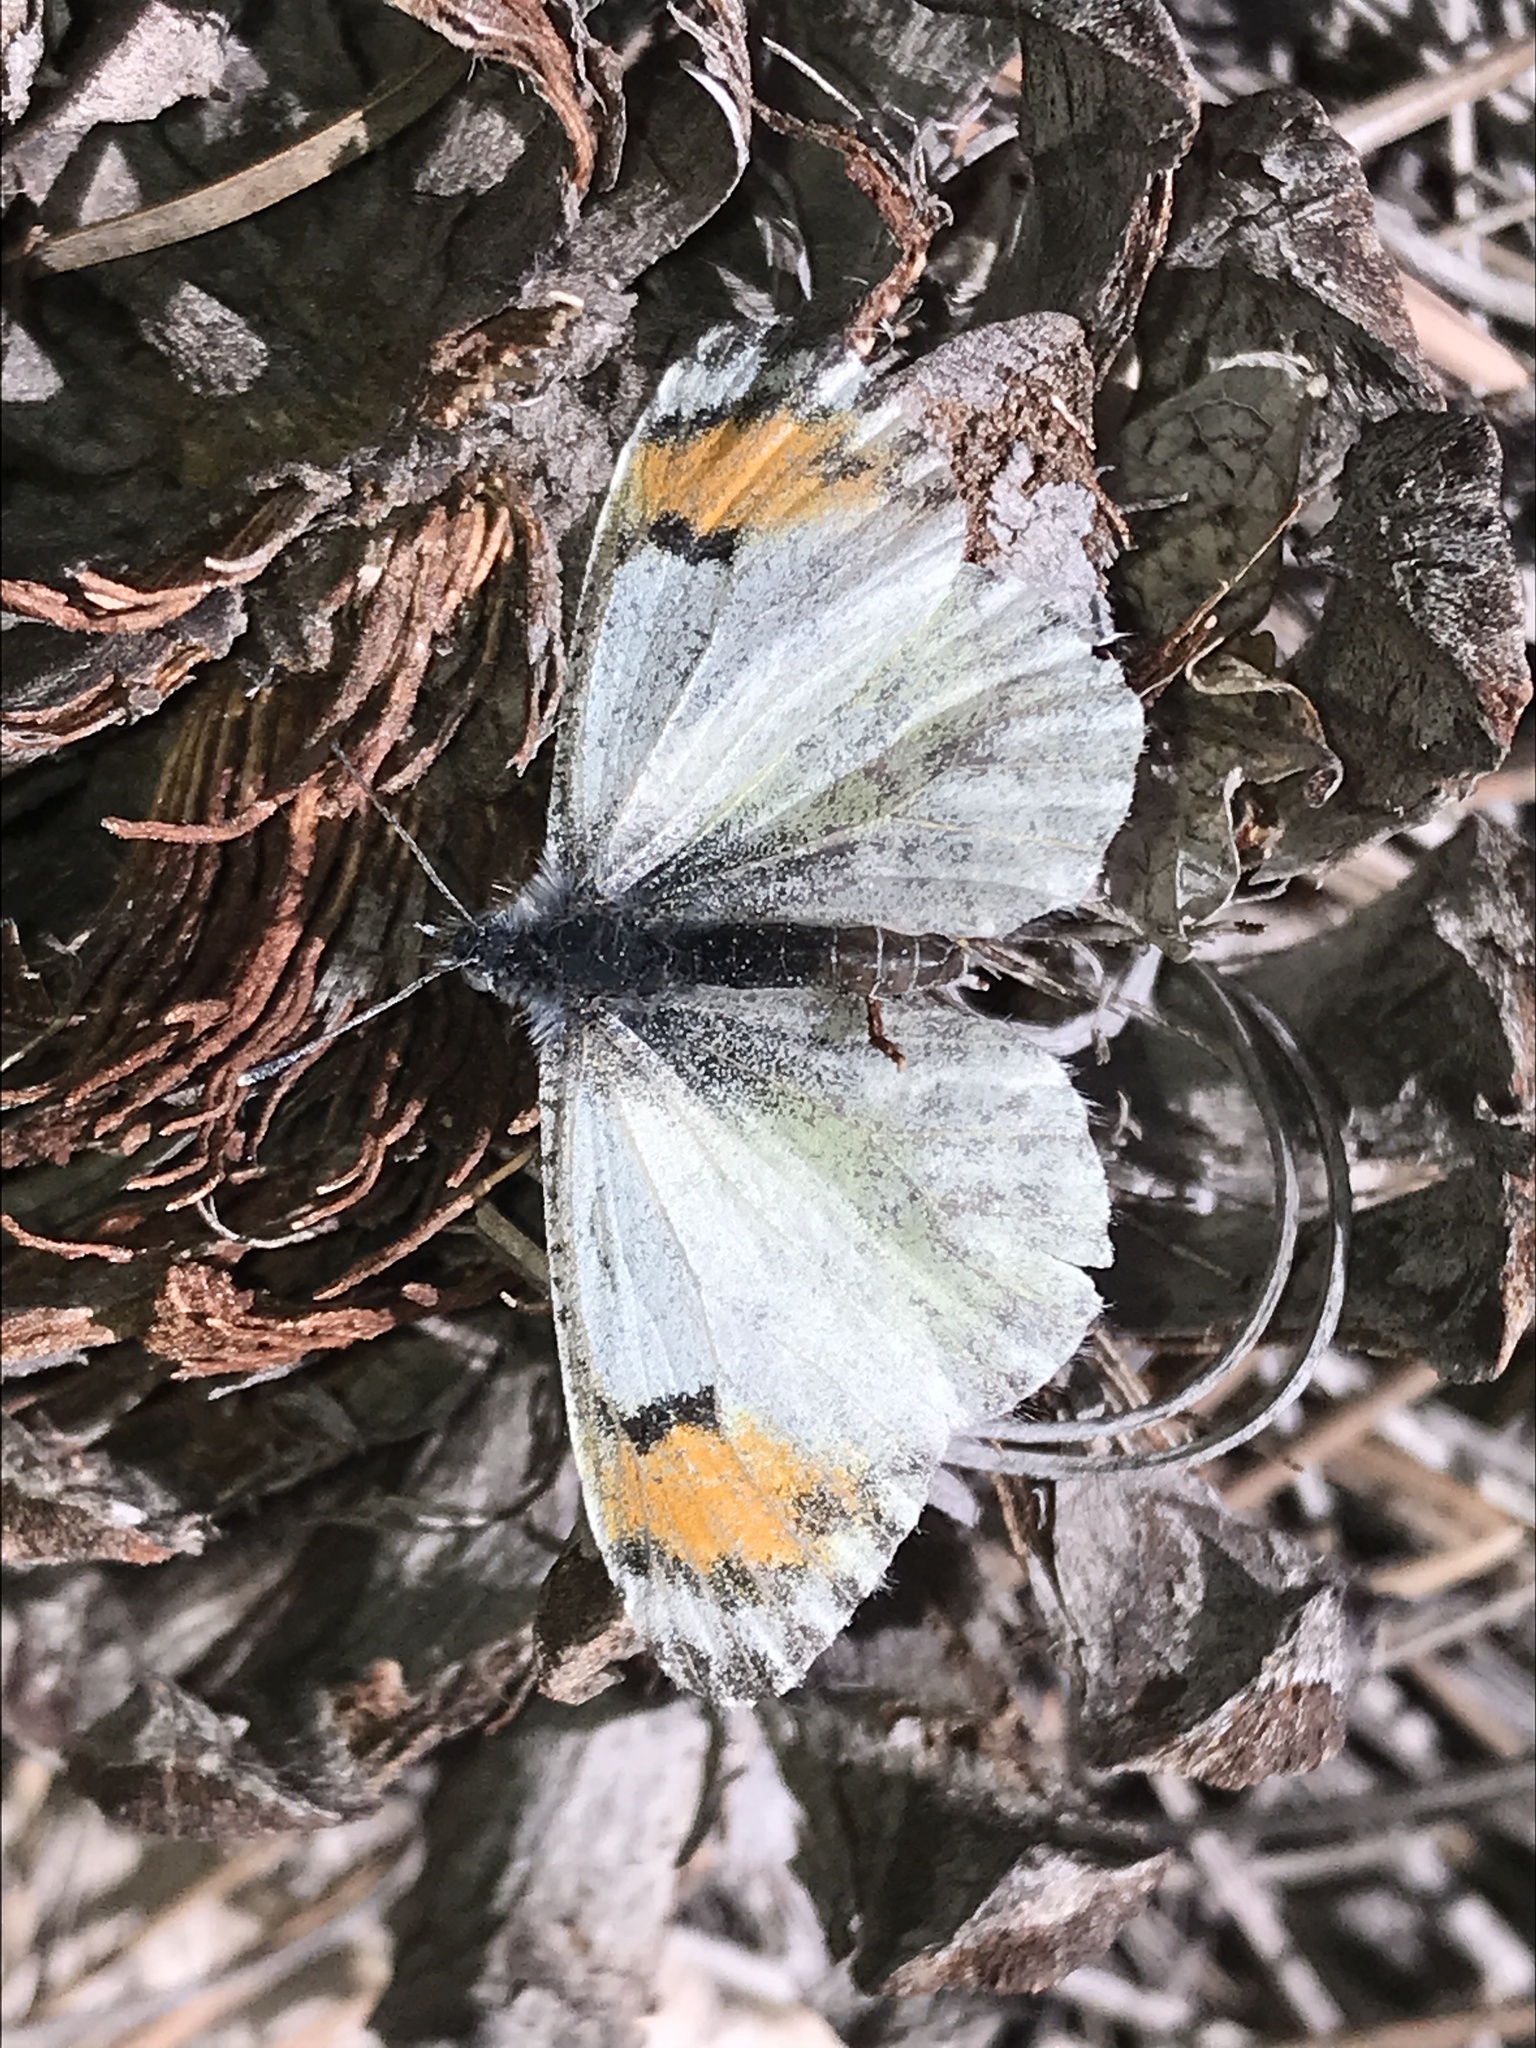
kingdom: Animalia
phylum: Arthropoda
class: Insecta
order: Lepidoptera
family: Pieridae
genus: Anthocharis
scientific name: Anthocharis thoosa
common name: Southwestern orangetip
